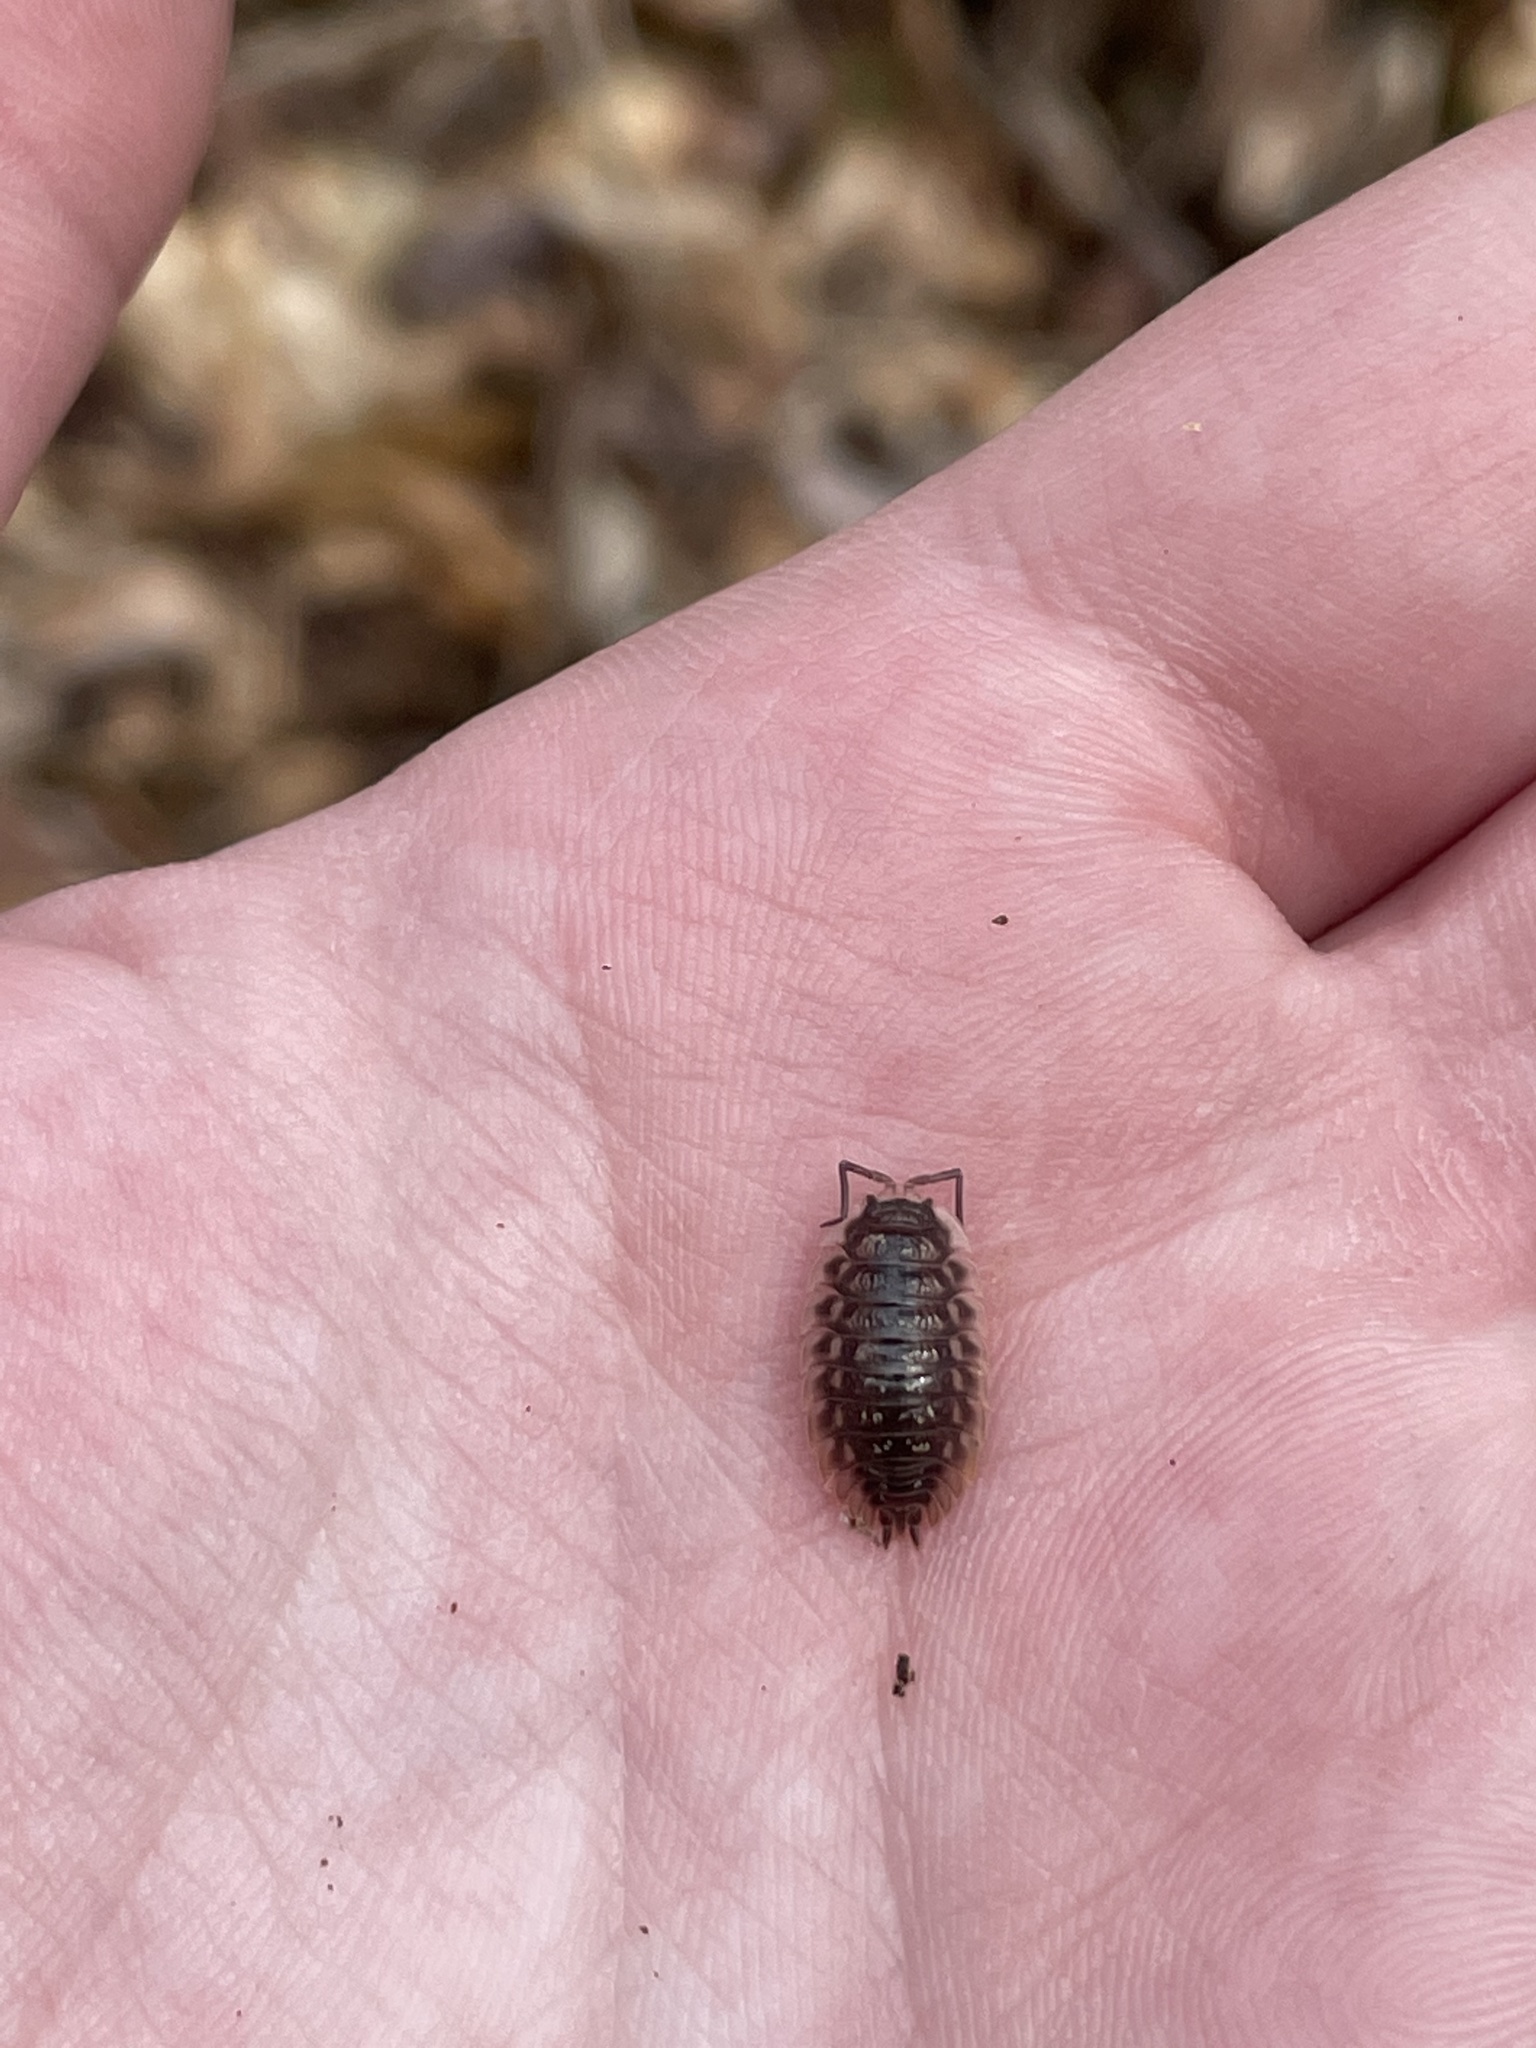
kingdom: Animalia
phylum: Arthropoda
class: Malacostraca
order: Isopoda
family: Oniscidae
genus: Oniscus
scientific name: Oniscus asellus
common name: Common shiny woodlouse
